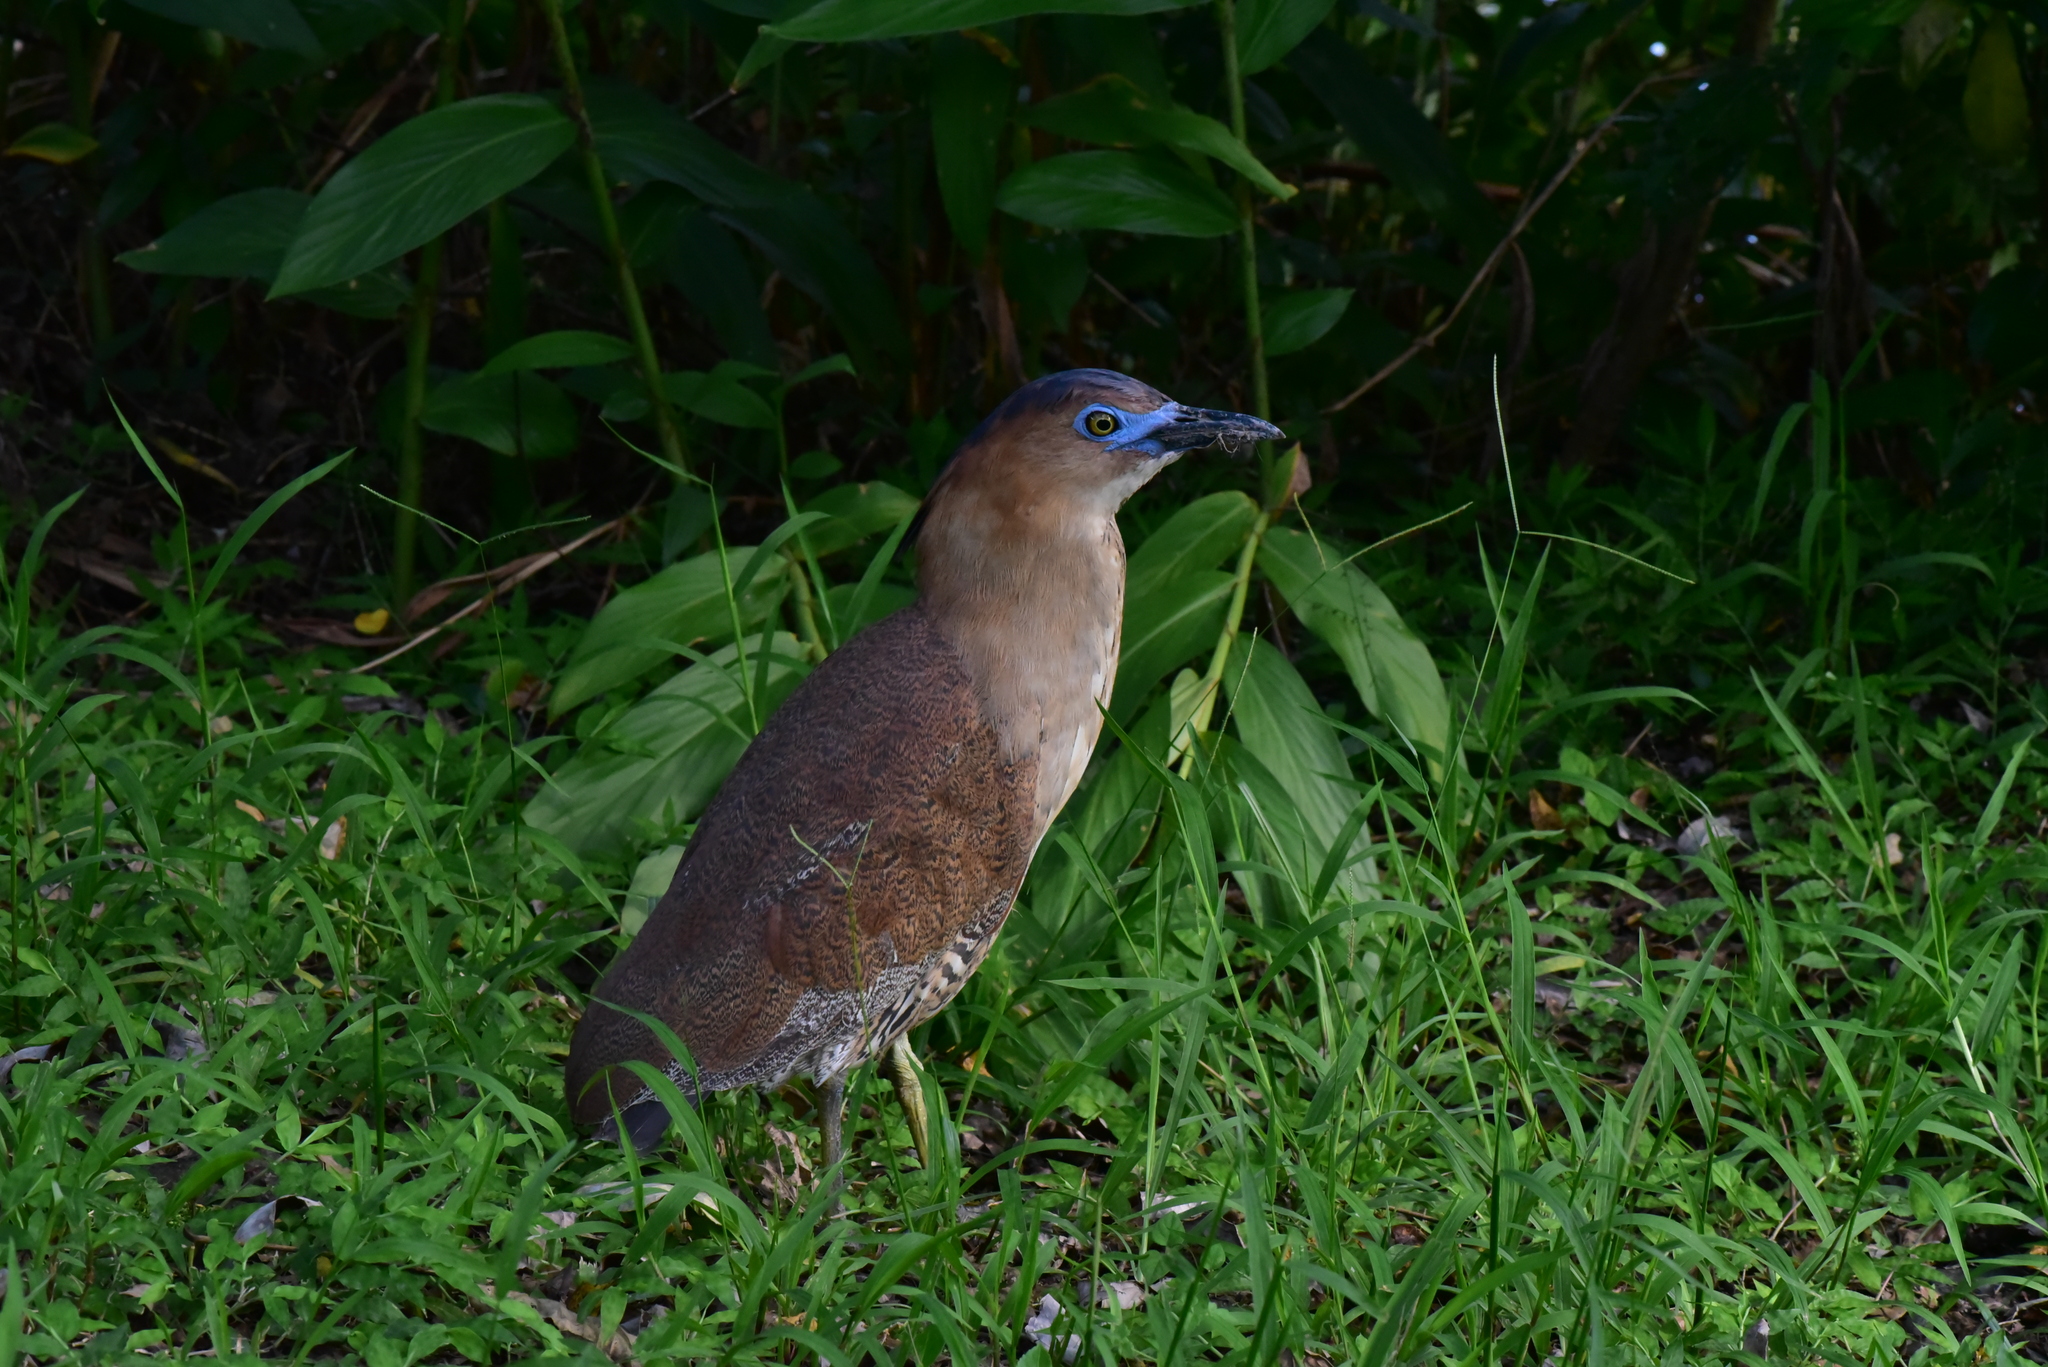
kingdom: Animalia
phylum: Chordata
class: Aves
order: Pelecaniformes
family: Ardeidae
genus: Gorsachius
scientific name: Gorsachius melanolophus
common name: Malayan night heron
